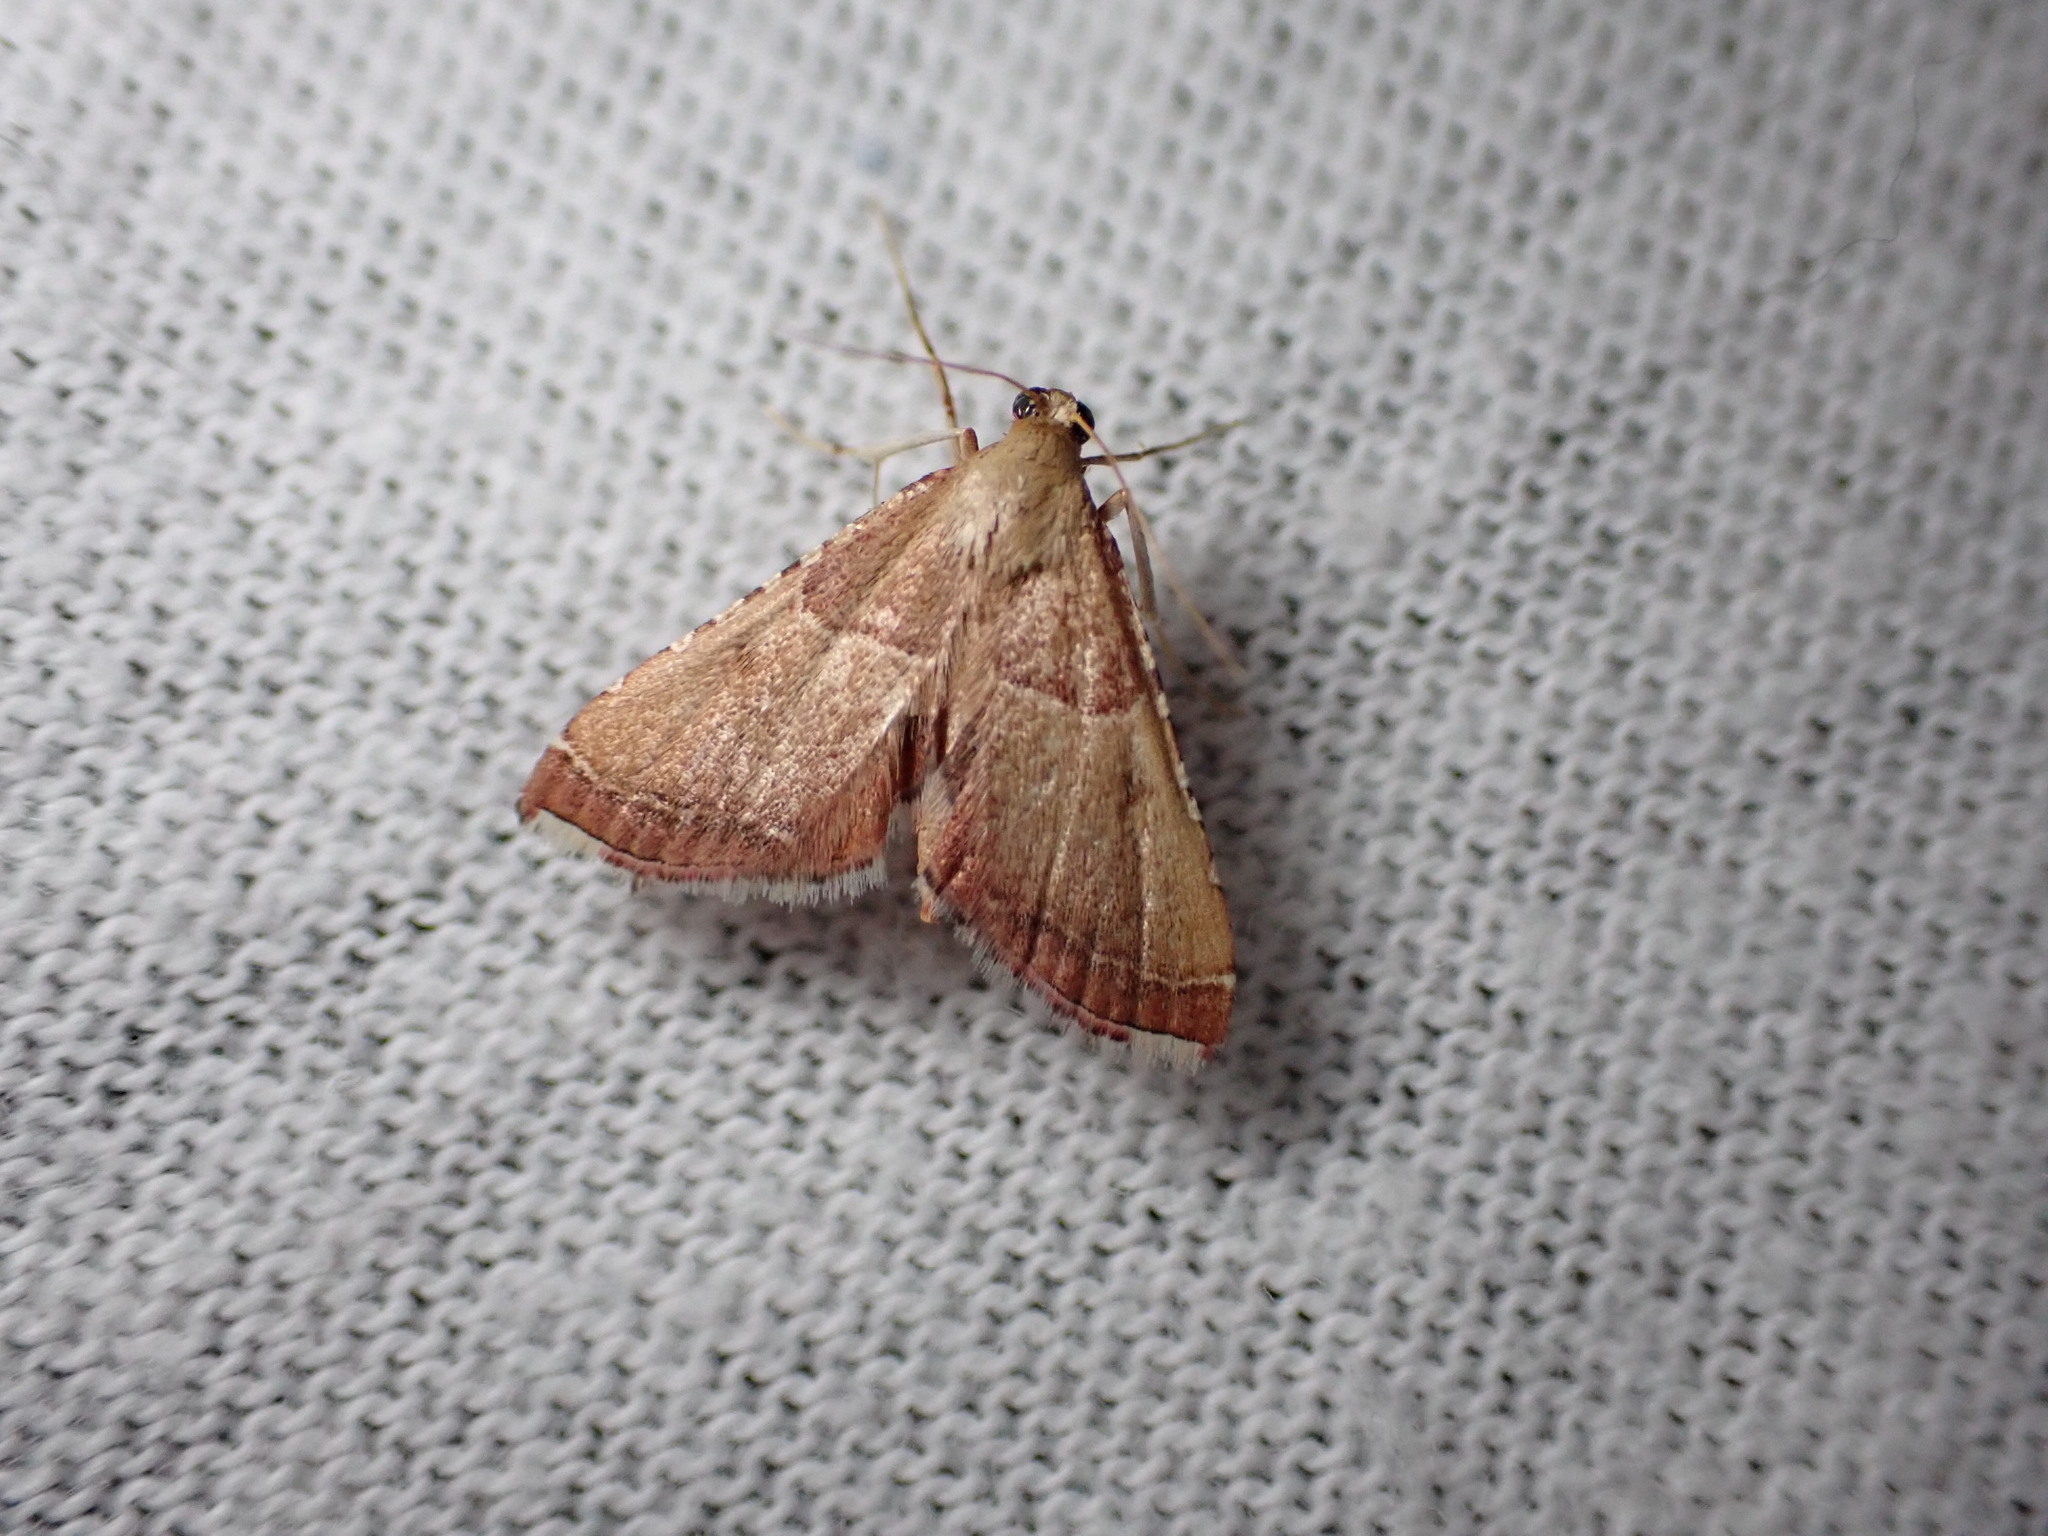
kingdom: Animalia
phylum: Arthropoda
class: Insecta
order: Lepidoptera
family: Pyralidae
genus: Endotricha
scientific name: Endotricha flammealis
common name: Rosy tabby
